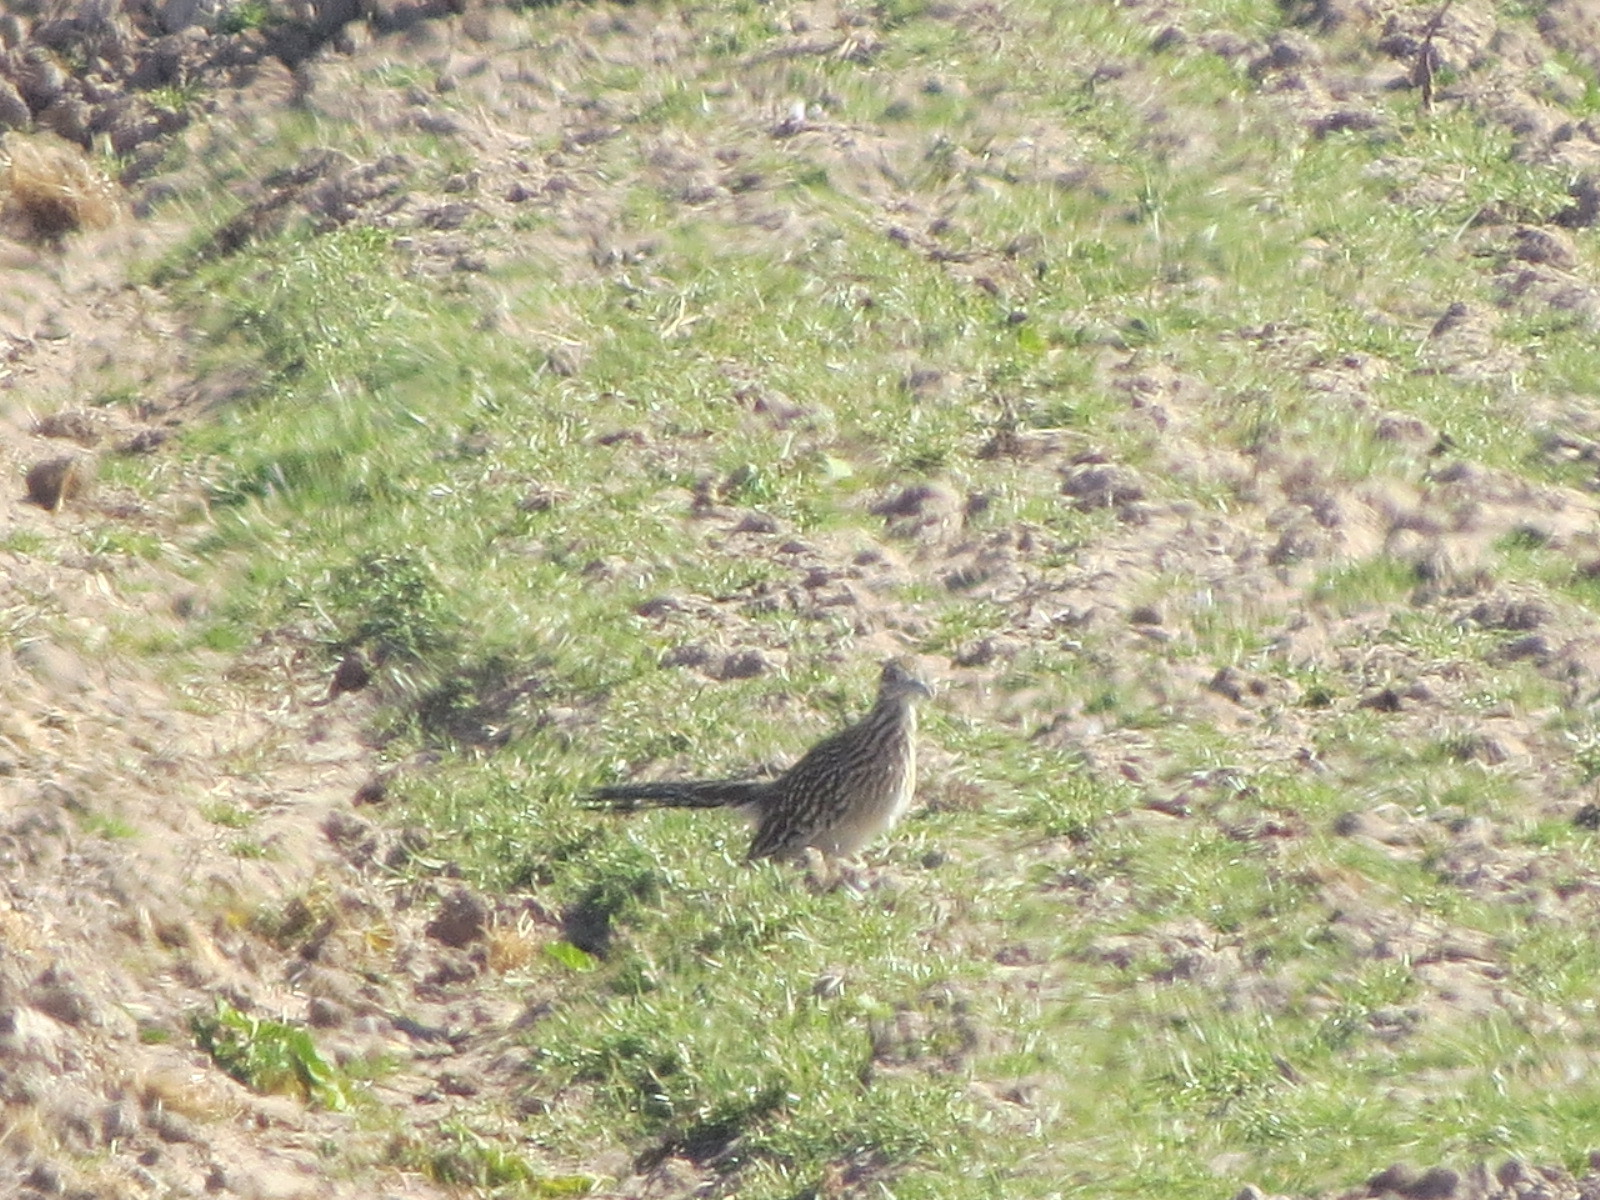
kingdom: Animalia
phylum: Chordata
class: Aves
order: Cuculiformes
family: Cuculidae
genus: Geococcyx
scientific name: Geococcyx californianus
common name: Greater roadrunner
